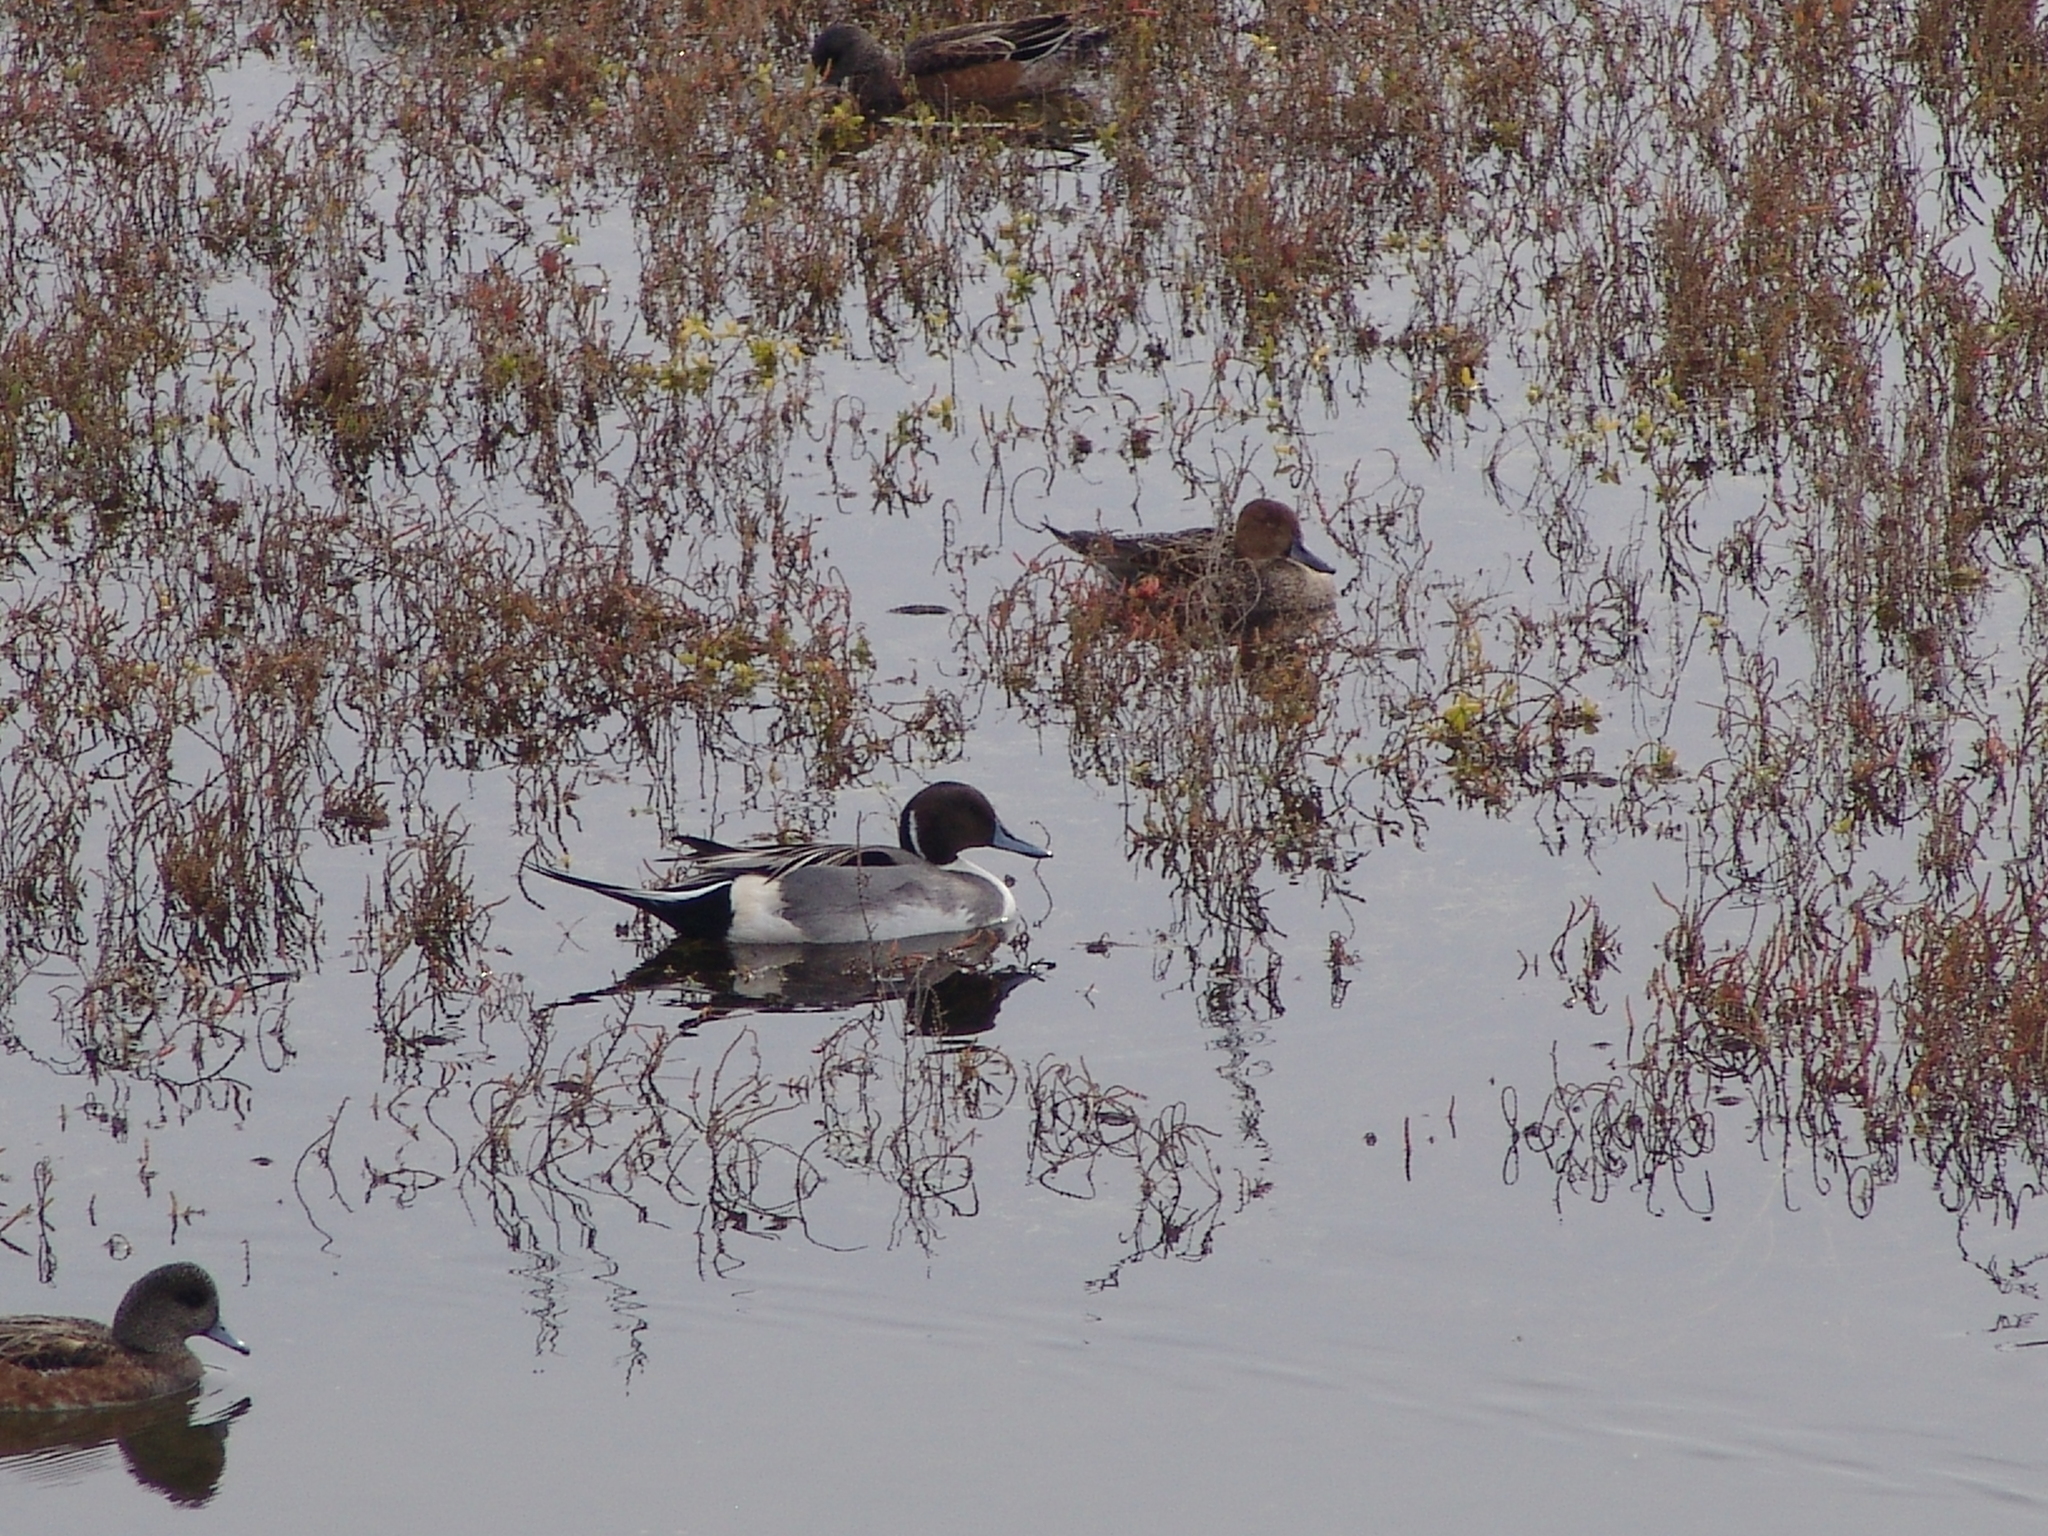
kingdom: Animalia
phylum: Chordata
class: Aves
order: Anseriformes
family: Anatidae
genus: Anas
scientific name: Anas acuta
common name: Northern pintail
